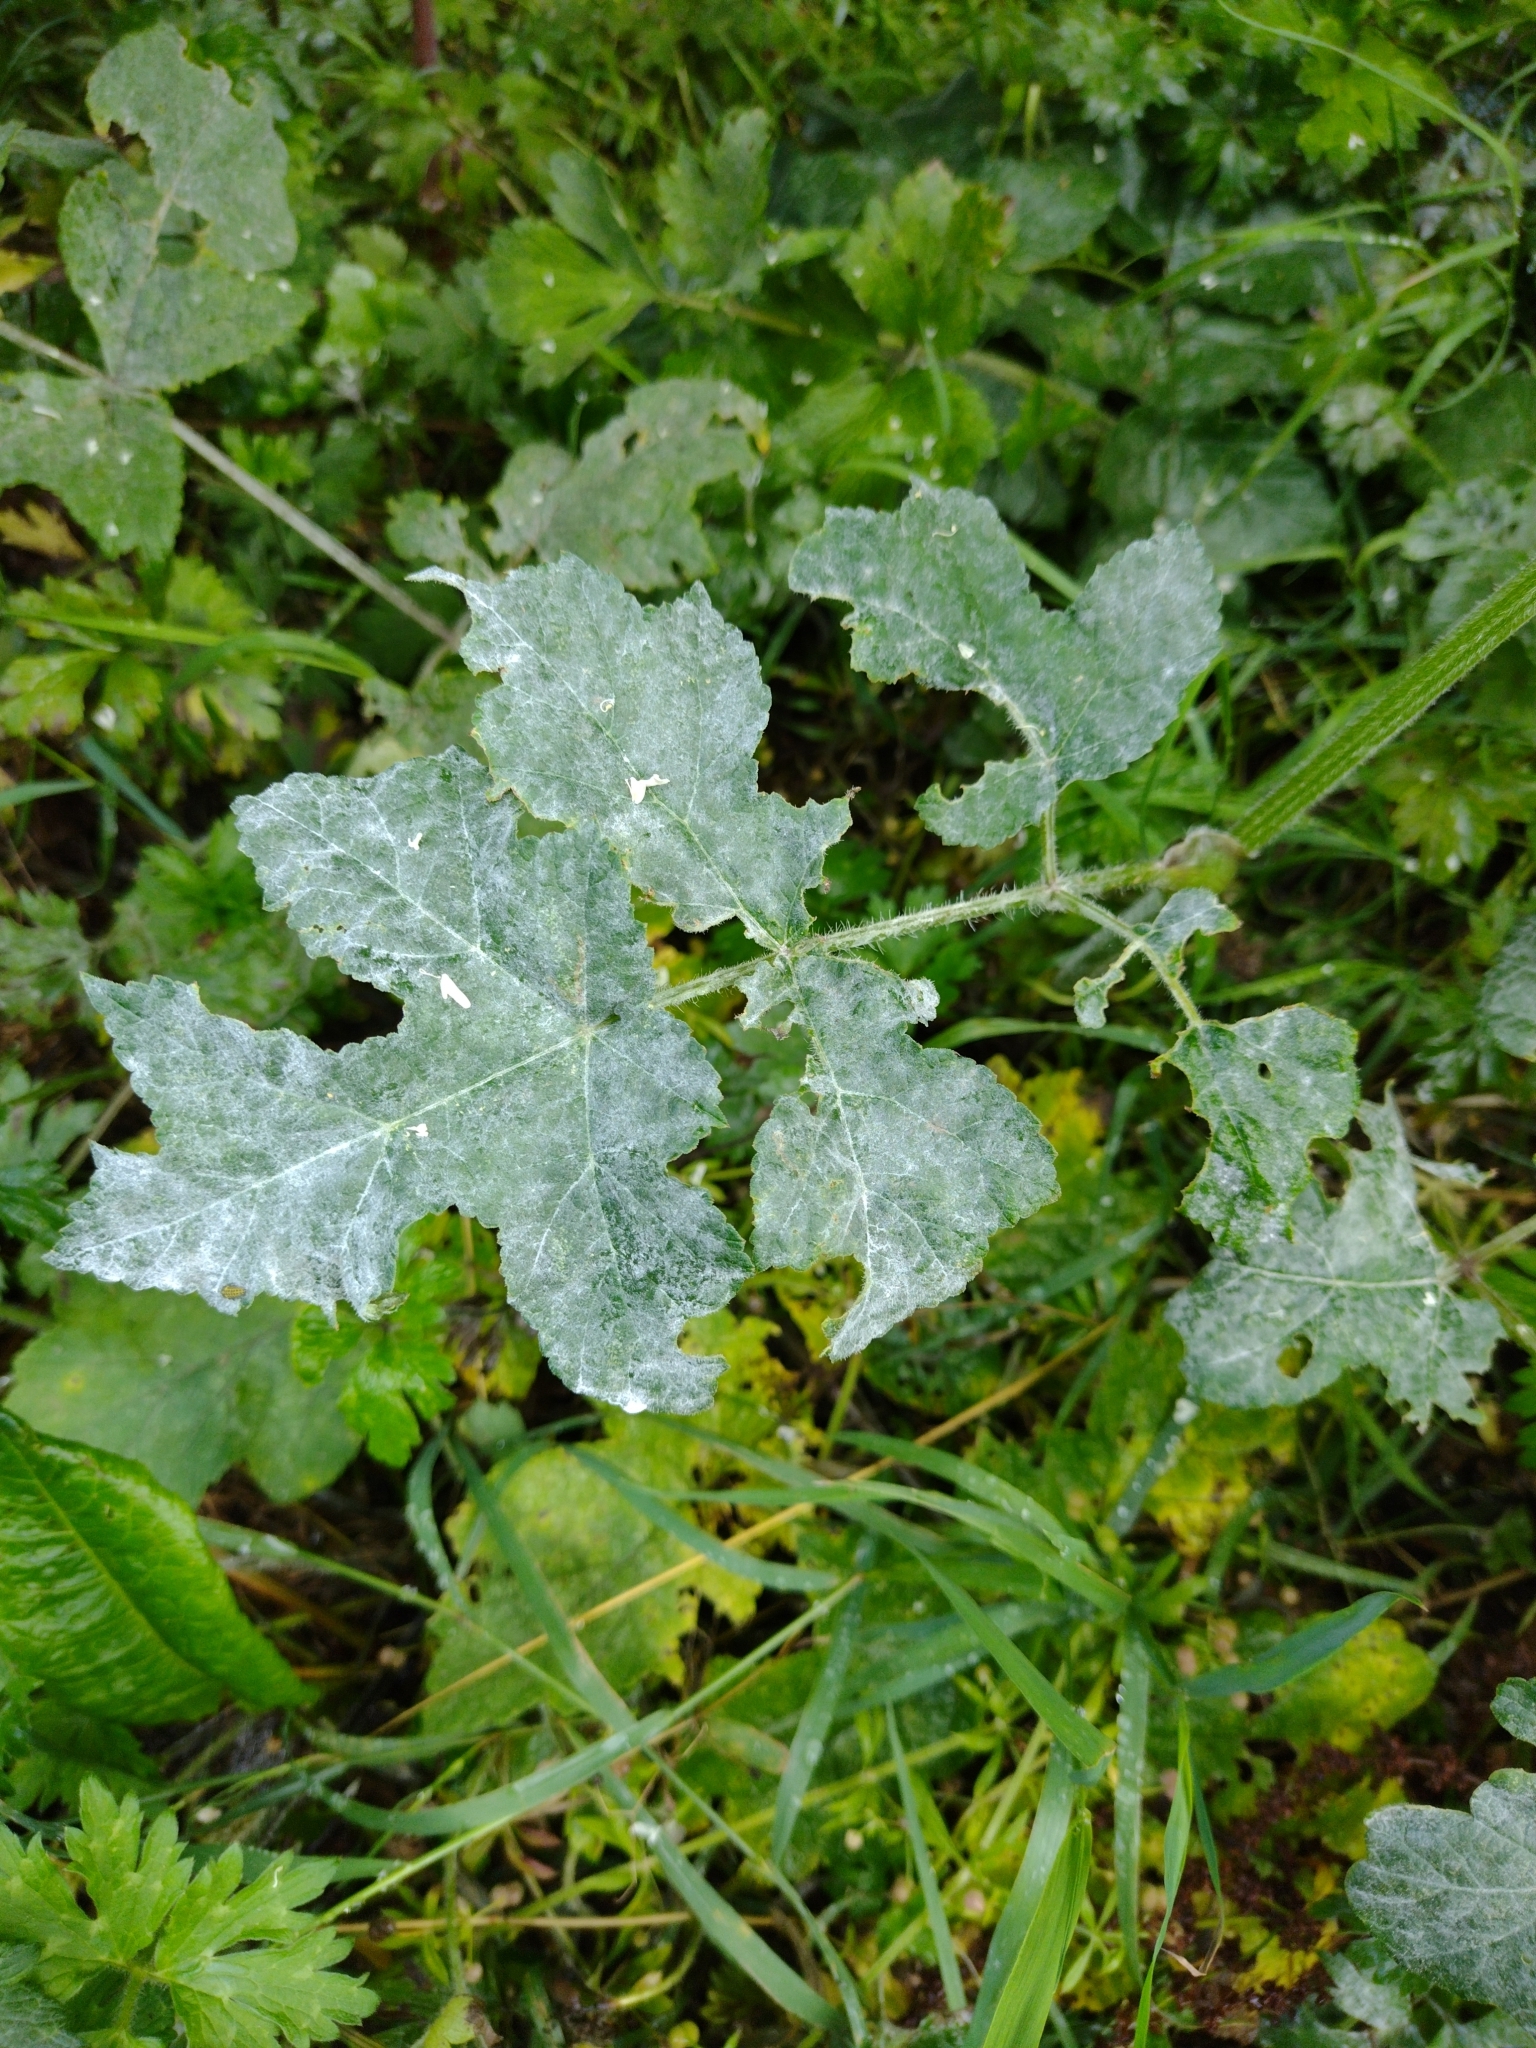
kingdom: Fungi
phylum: Ascomycota
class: Leotiomycetes
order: Helotiales
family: Erysiphaceae
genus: Erysiphe
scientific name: Erysiphe heraclei
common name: Umbellifer mildew
